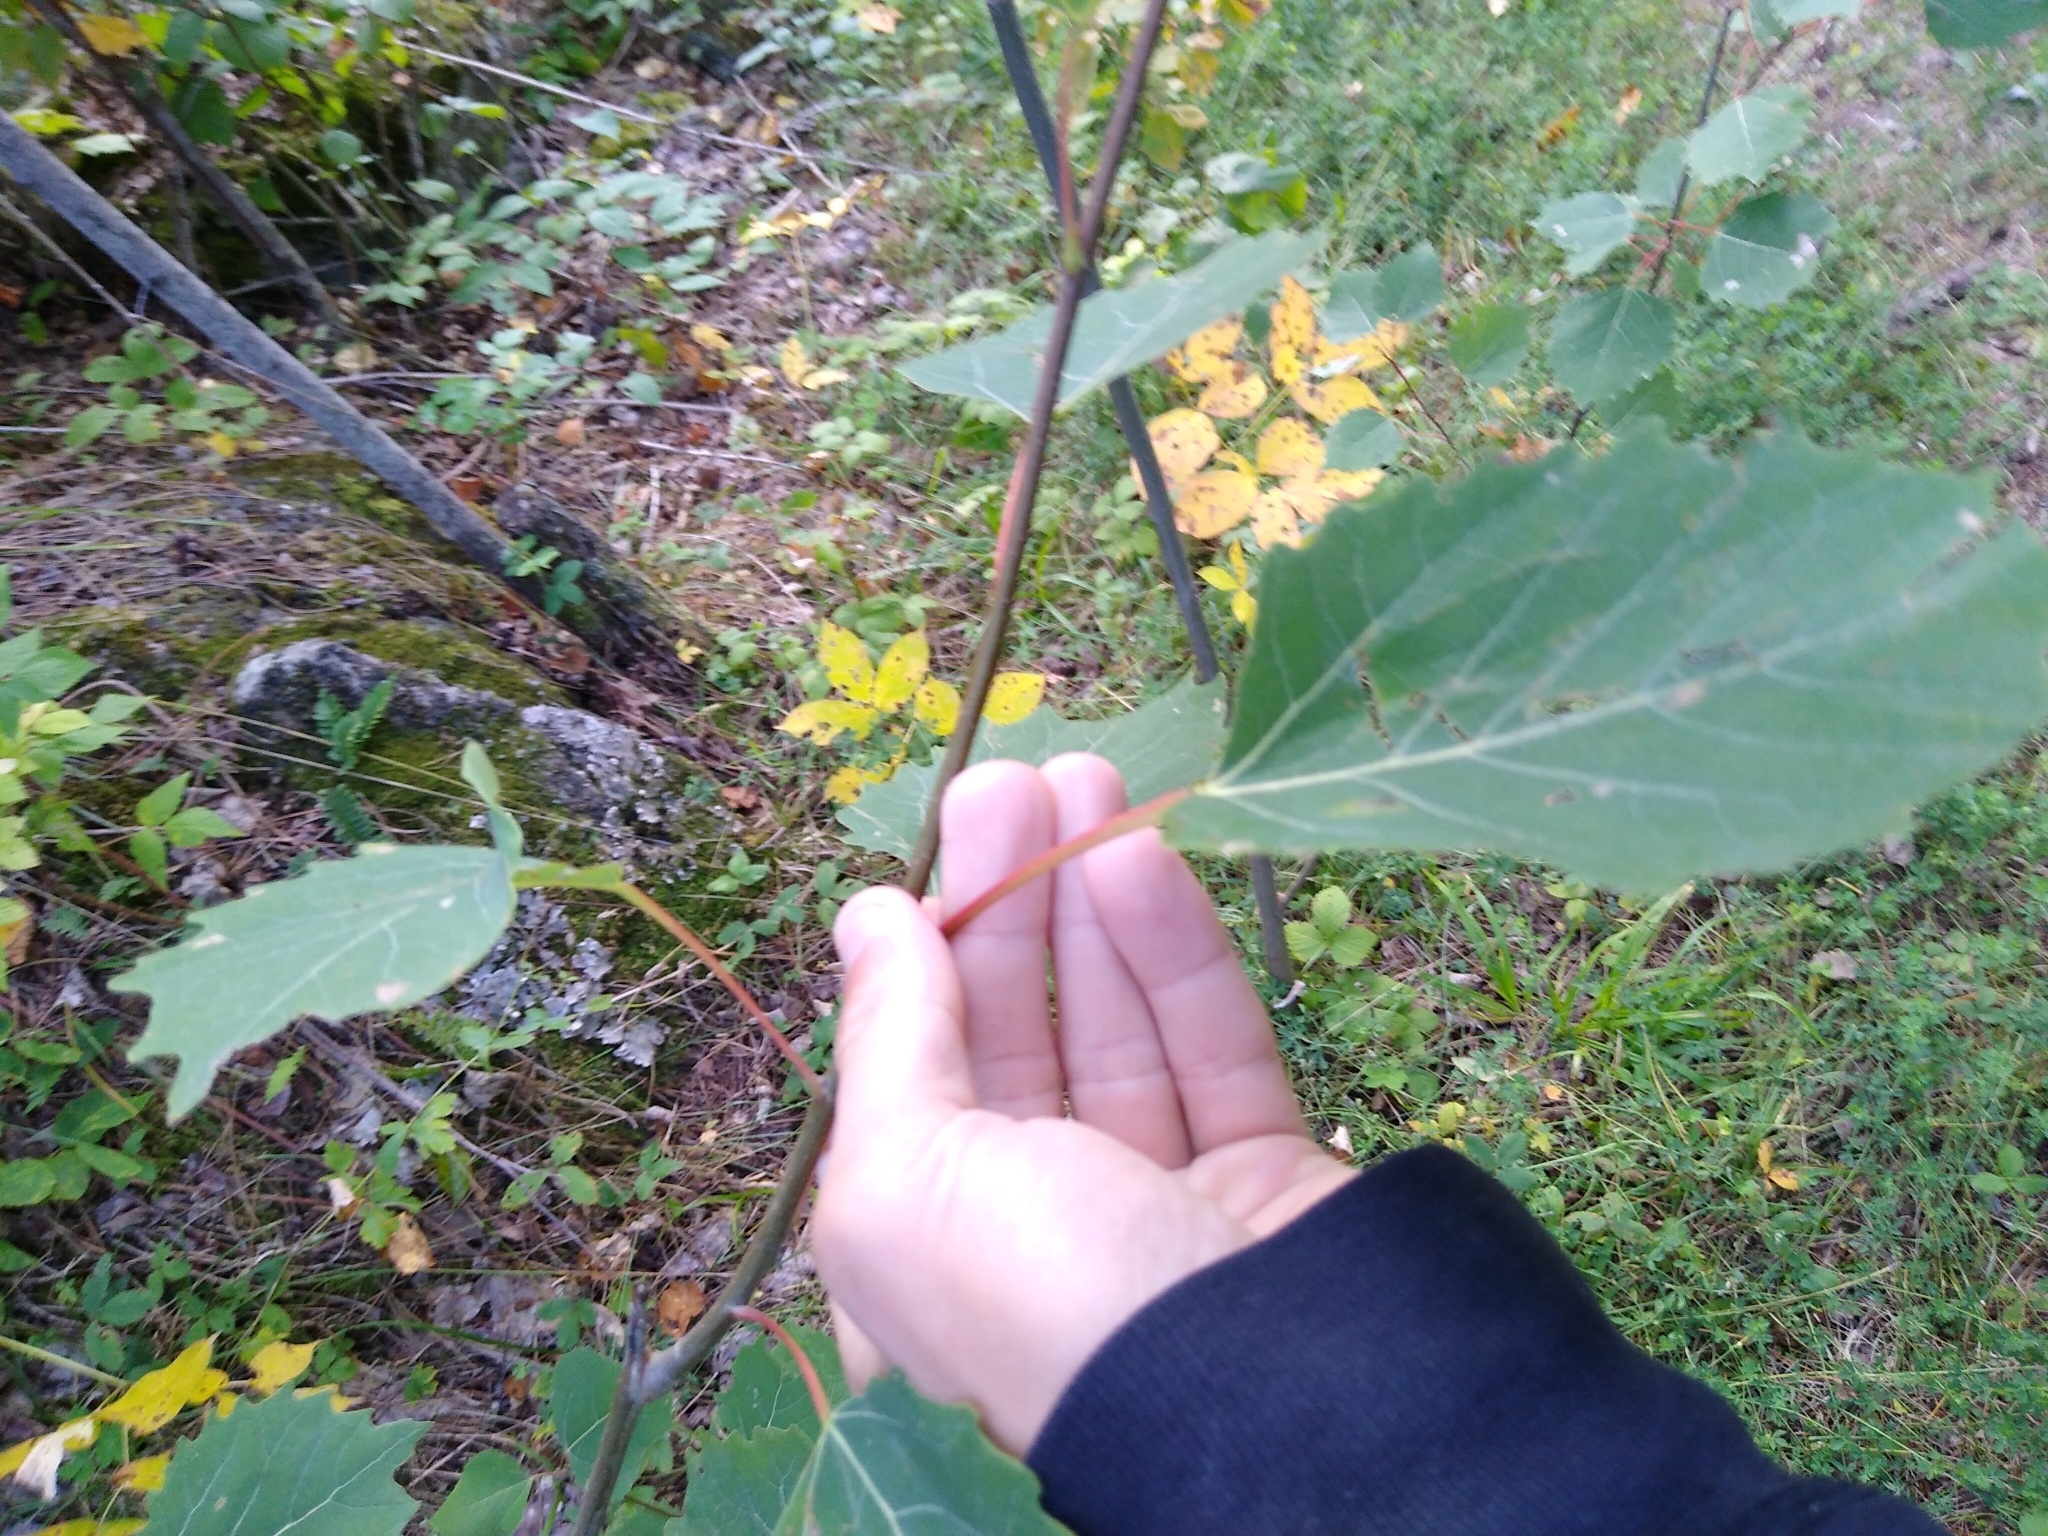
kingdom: Plantae
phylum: Tracheophyta
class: Magnoliopsida
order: Malpighiales
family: Salicaceae
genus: Populus
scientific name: Populus grandidentata
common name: Bigtooth aspen
